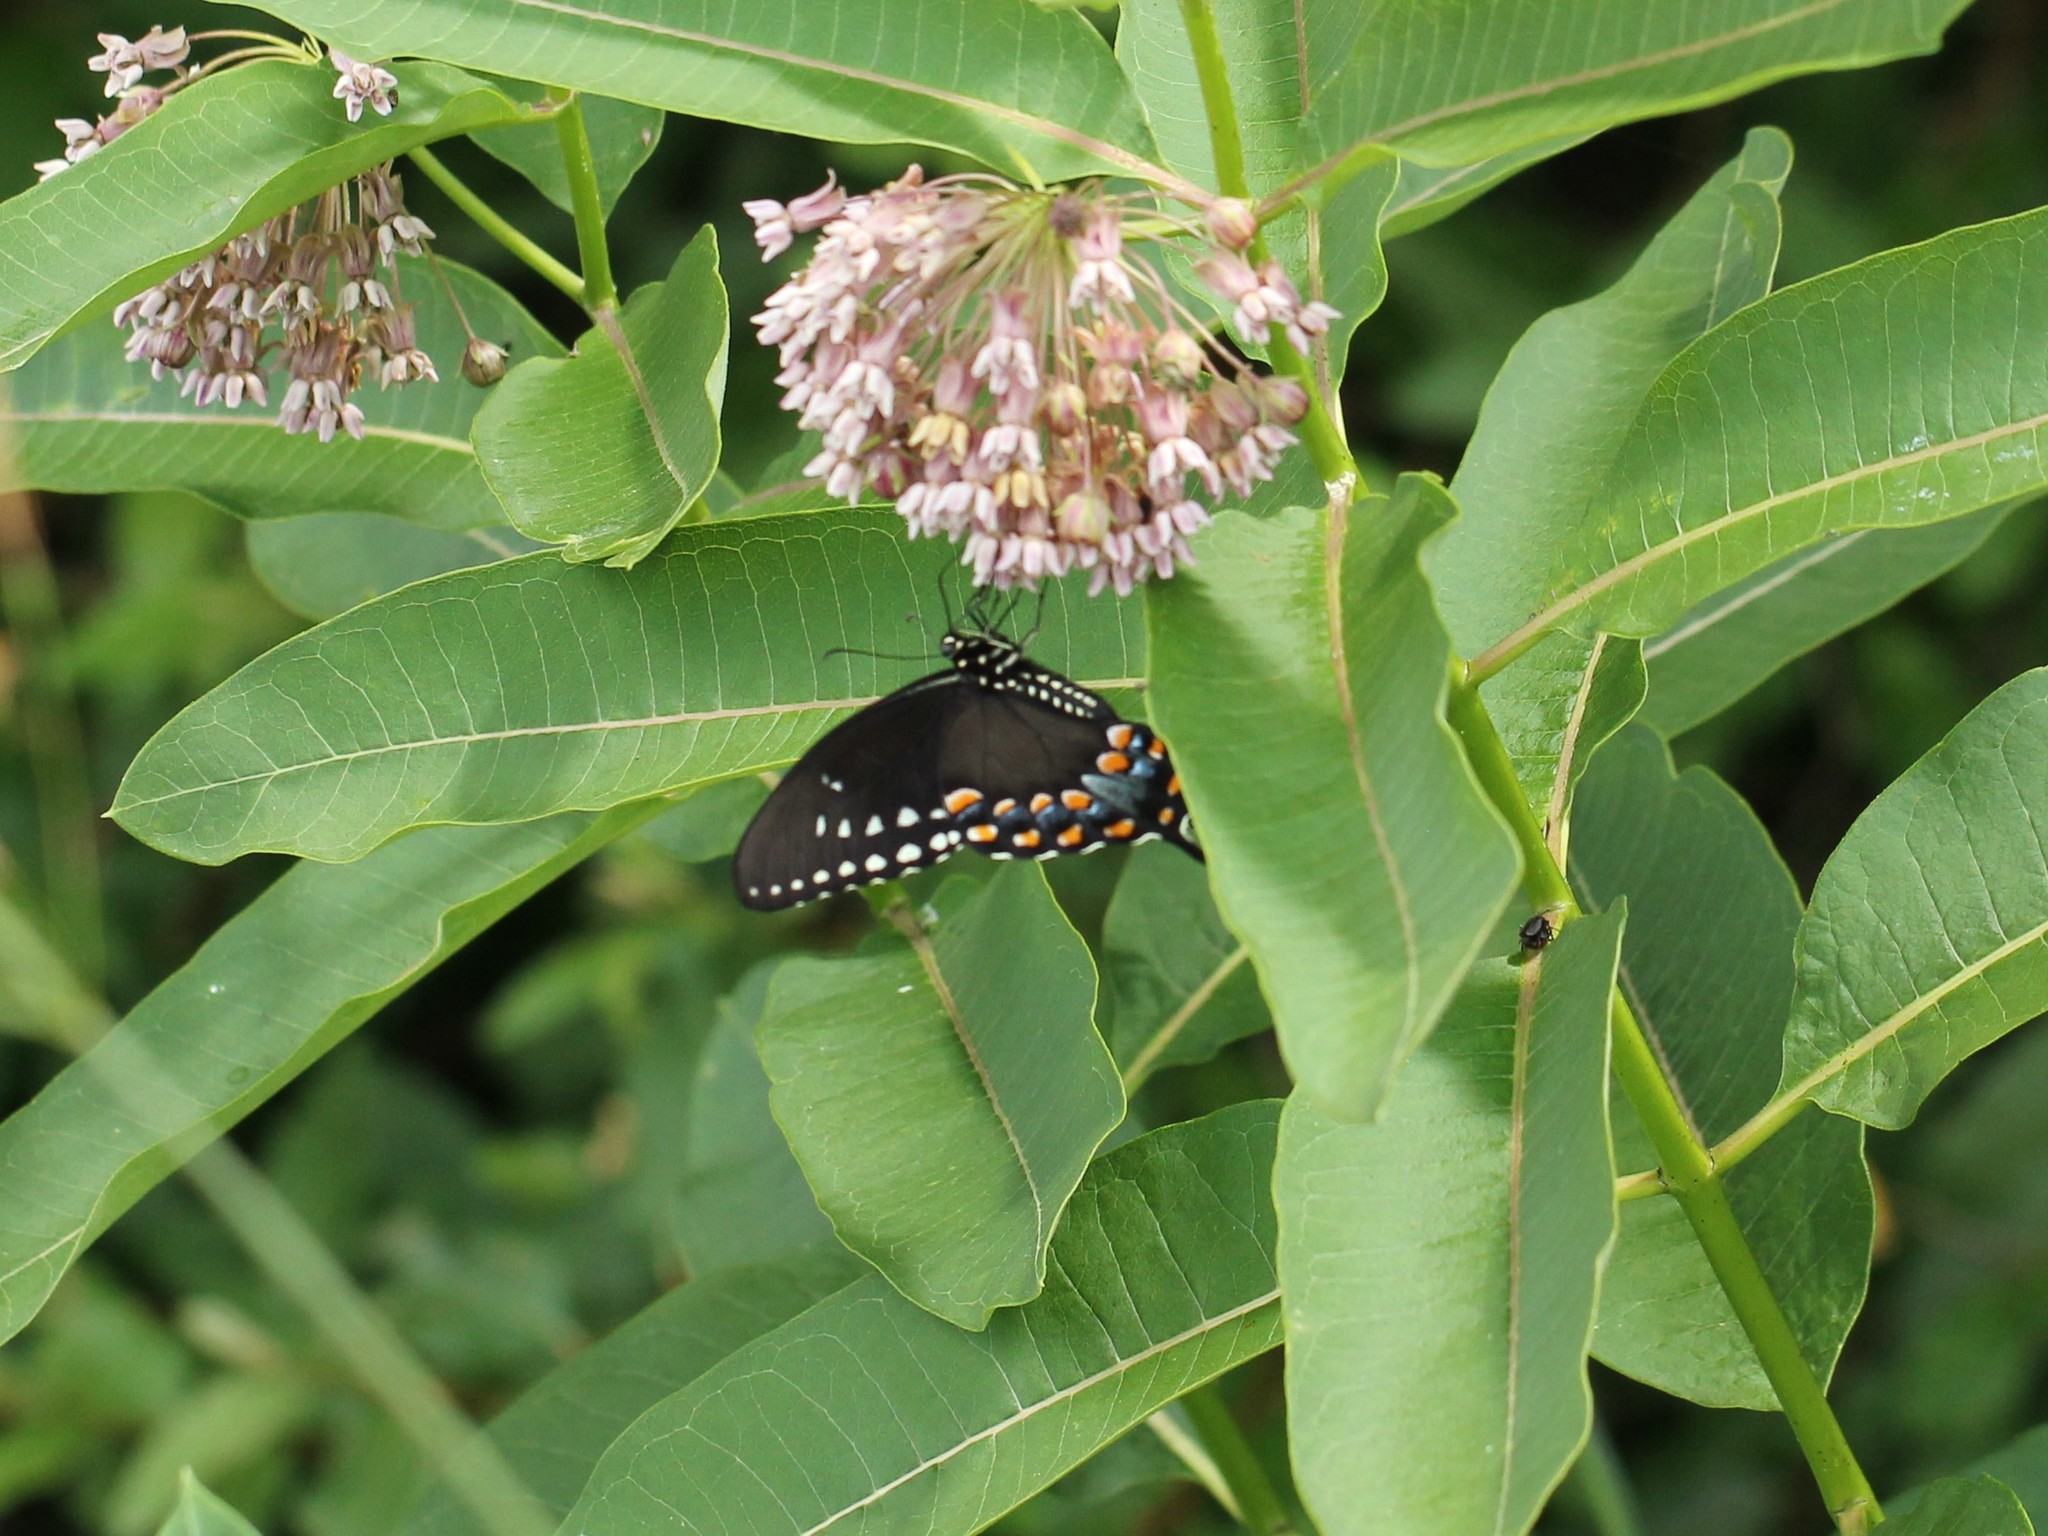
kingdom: Animalia
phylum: Arthropoda
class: Insecta
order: Lepidoptera
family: Papilionidae
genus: Papilio
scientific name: Papilio troilus
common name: Spicebush swallowtail
